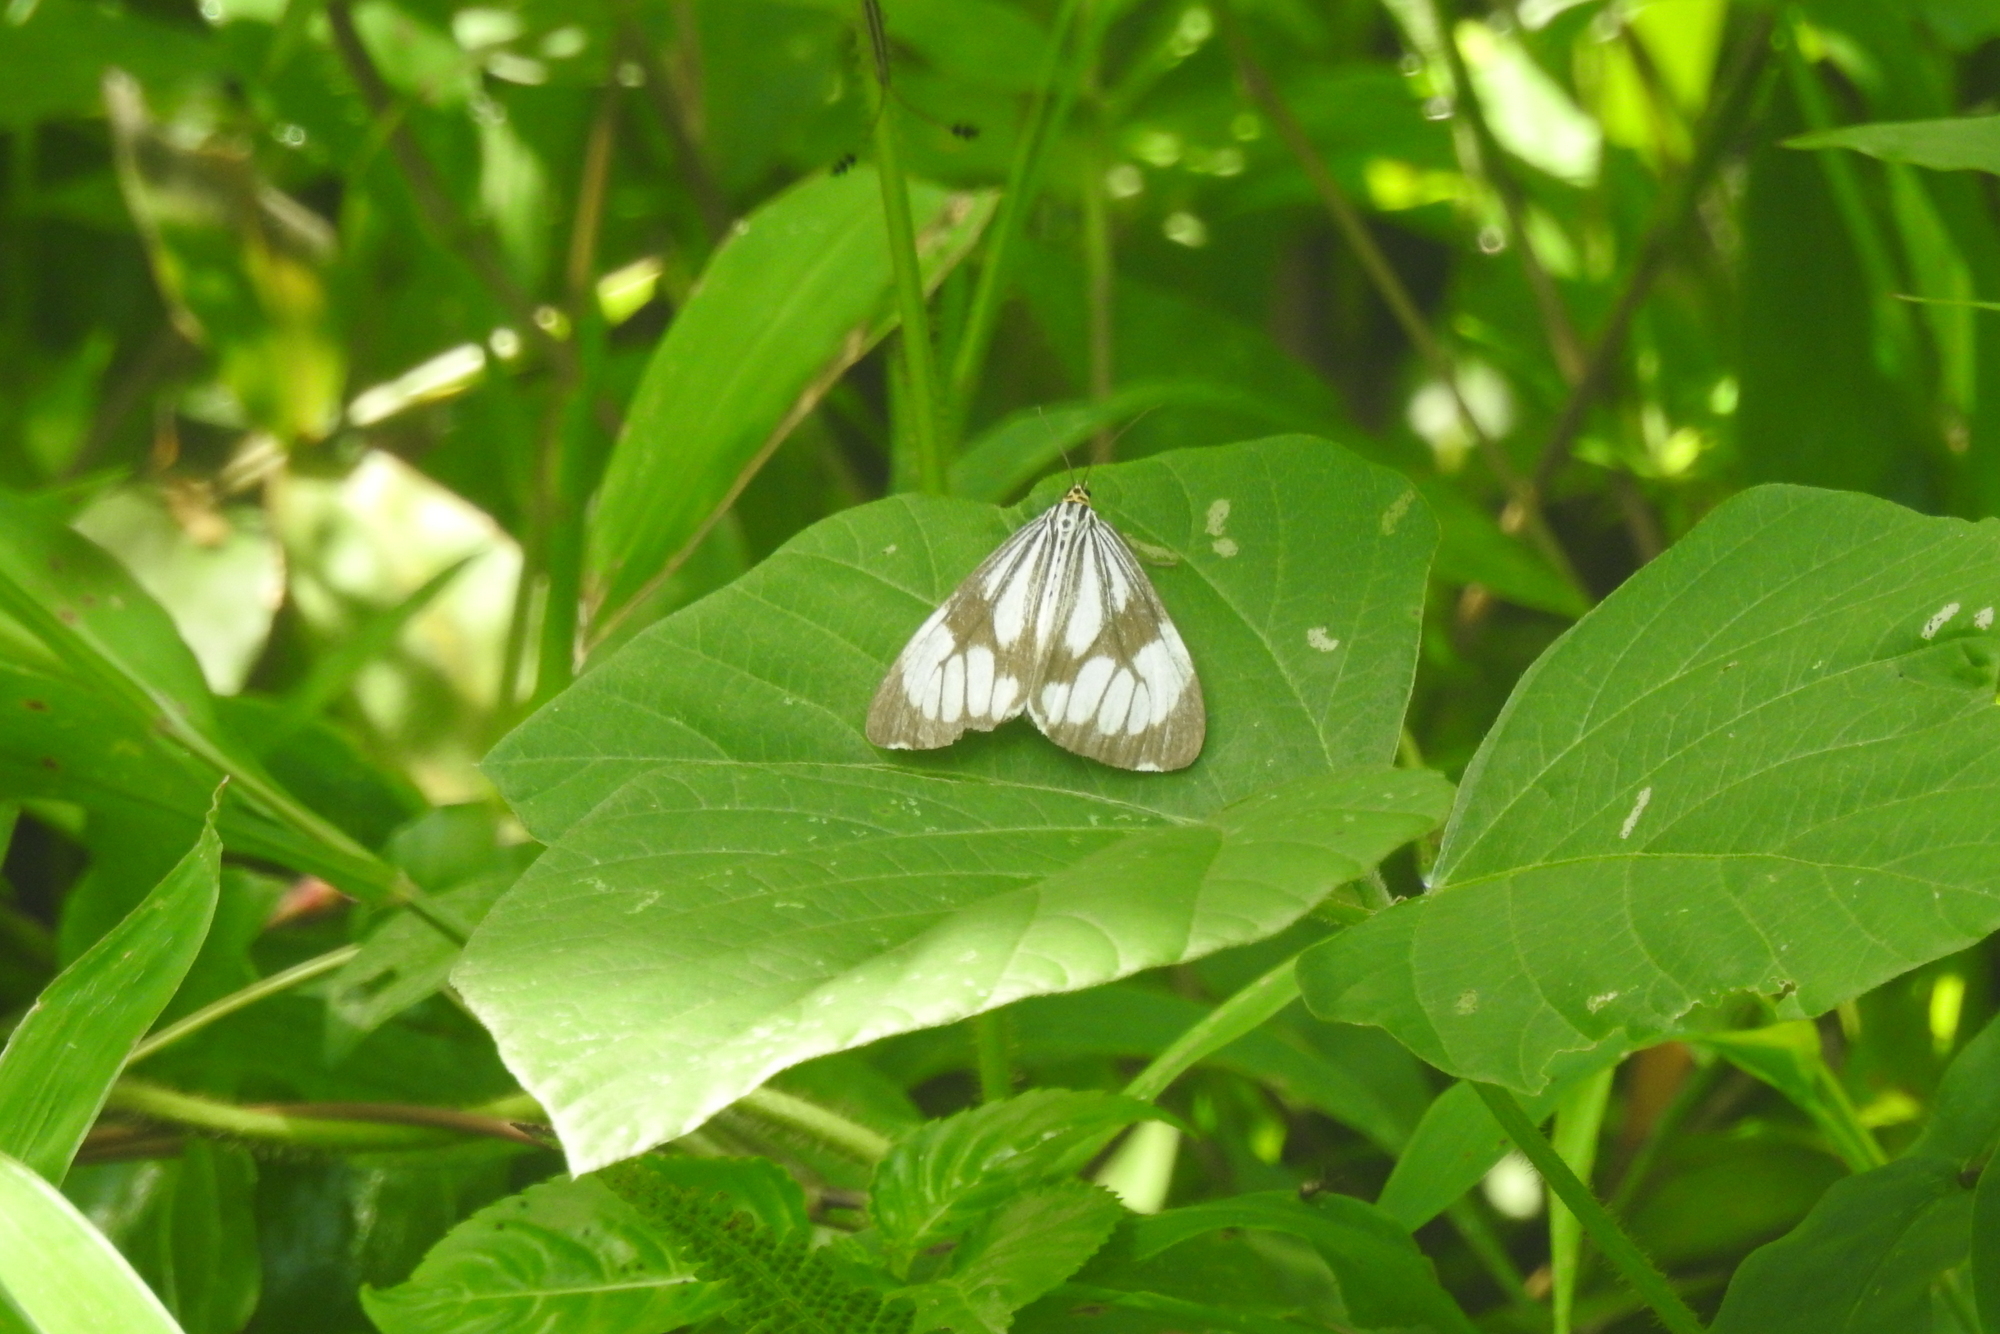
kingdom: Animalia
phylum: Arthropoda
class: Insecta
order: Lepidoptera
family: Erebidae
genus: Nyctemera
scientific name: Nyctemera coleta
